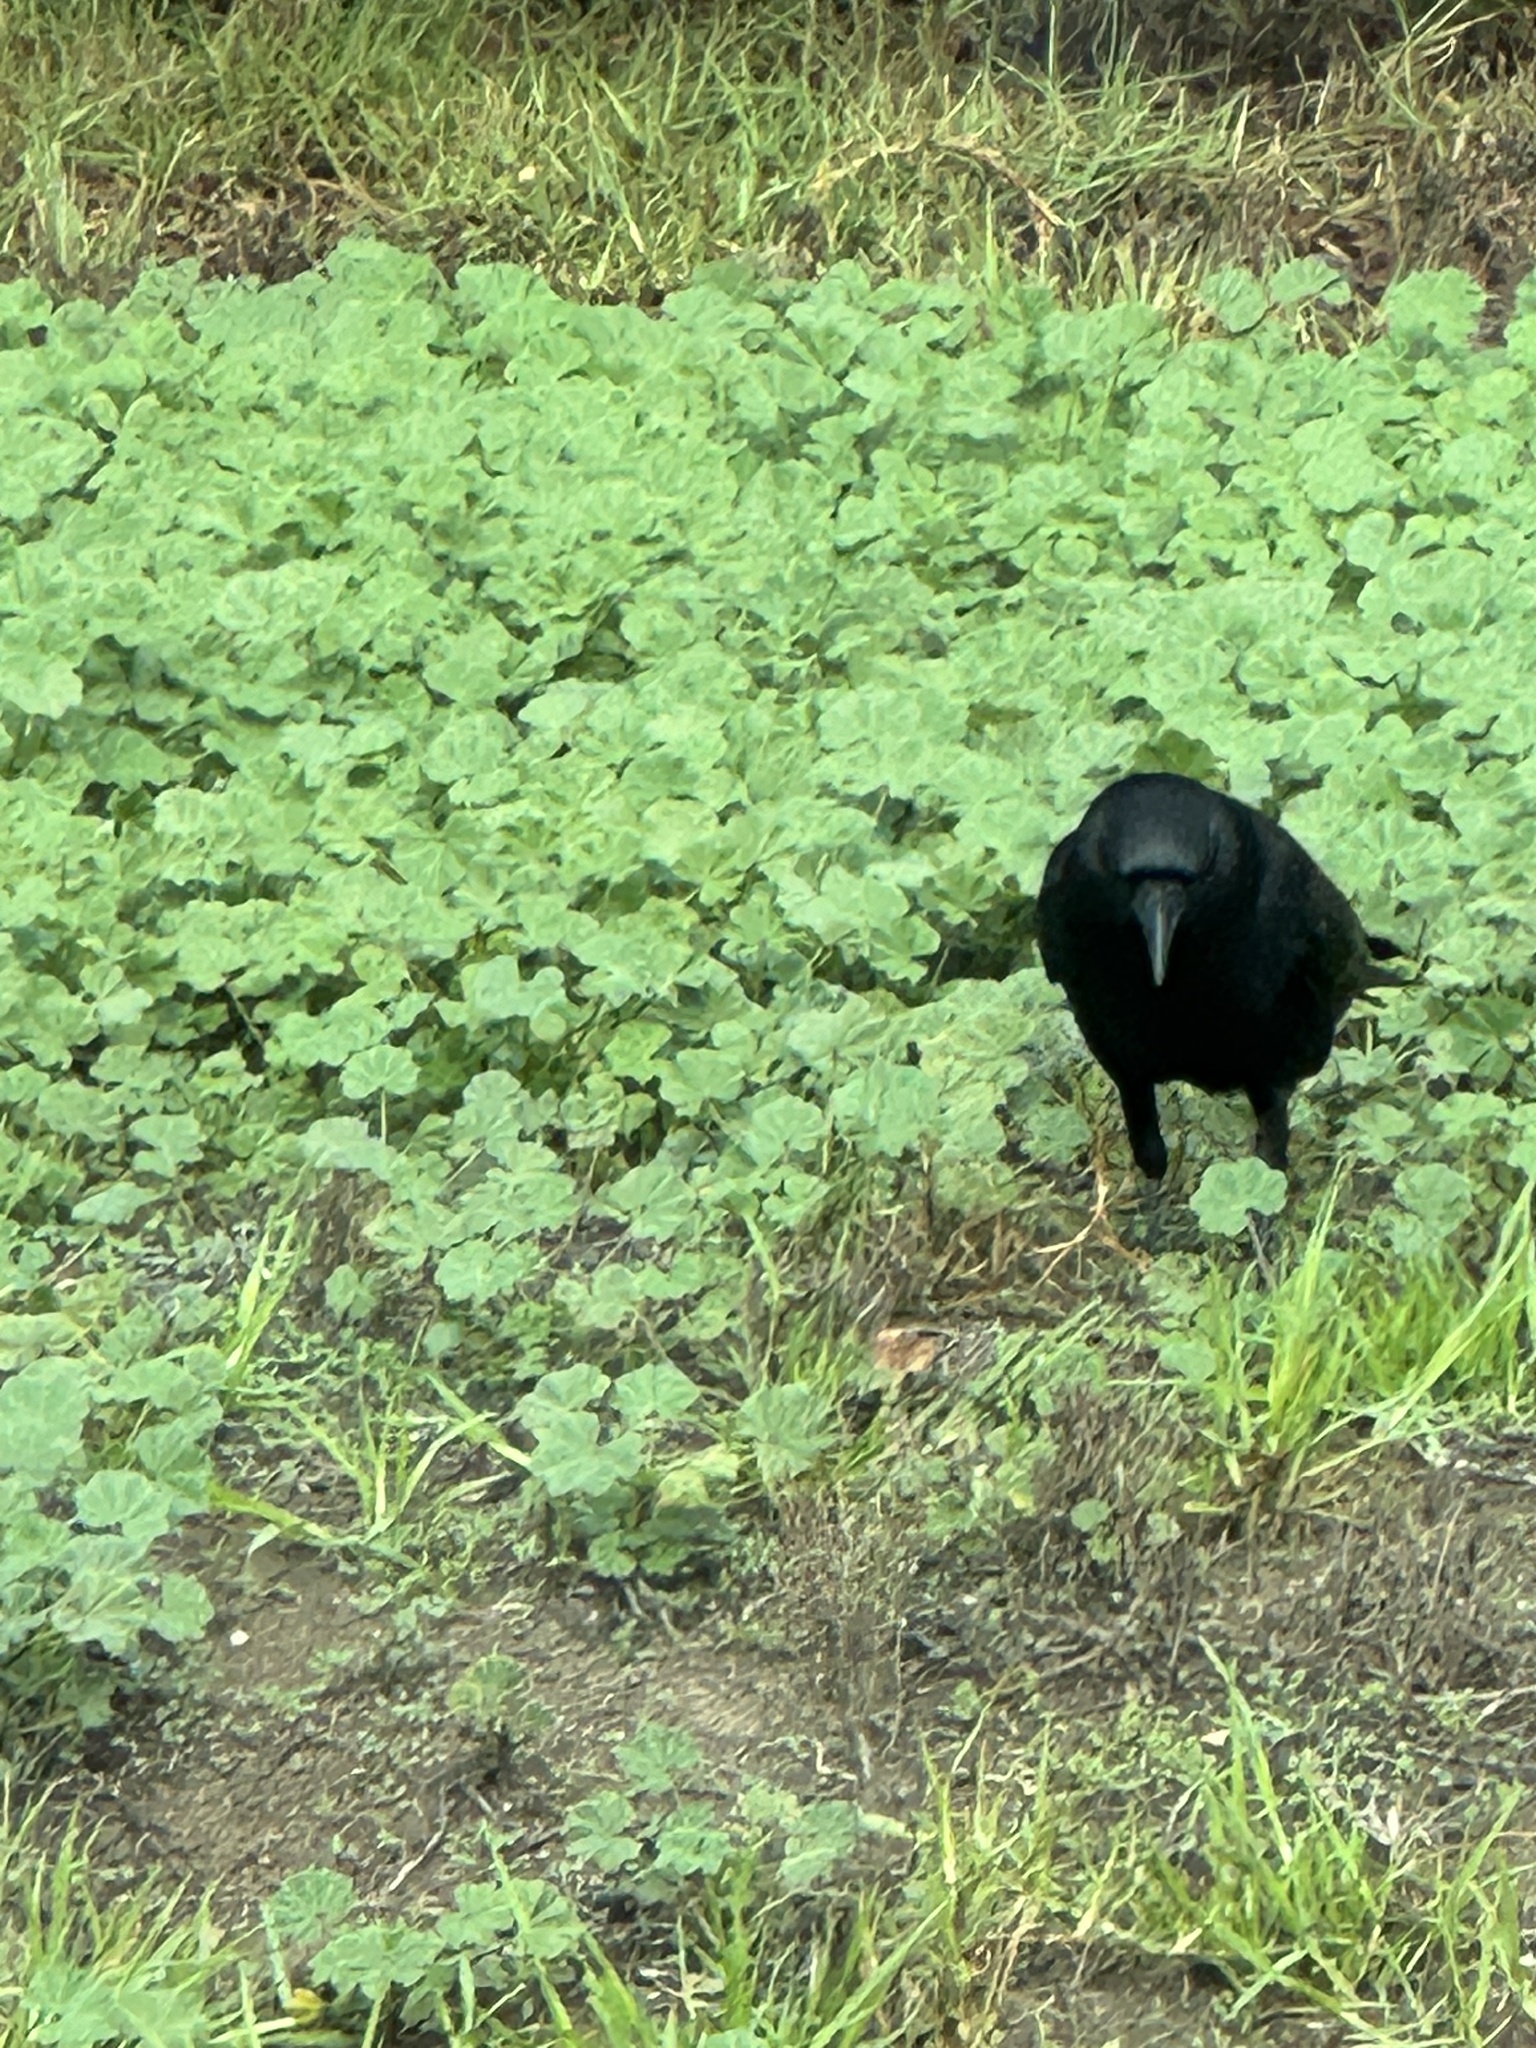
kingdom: Animalia
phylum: Chordata
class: Aves
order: Passeriformes
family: Corvidae
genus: Corvus
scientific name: Corvus brachyrhynchos
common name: American crow
